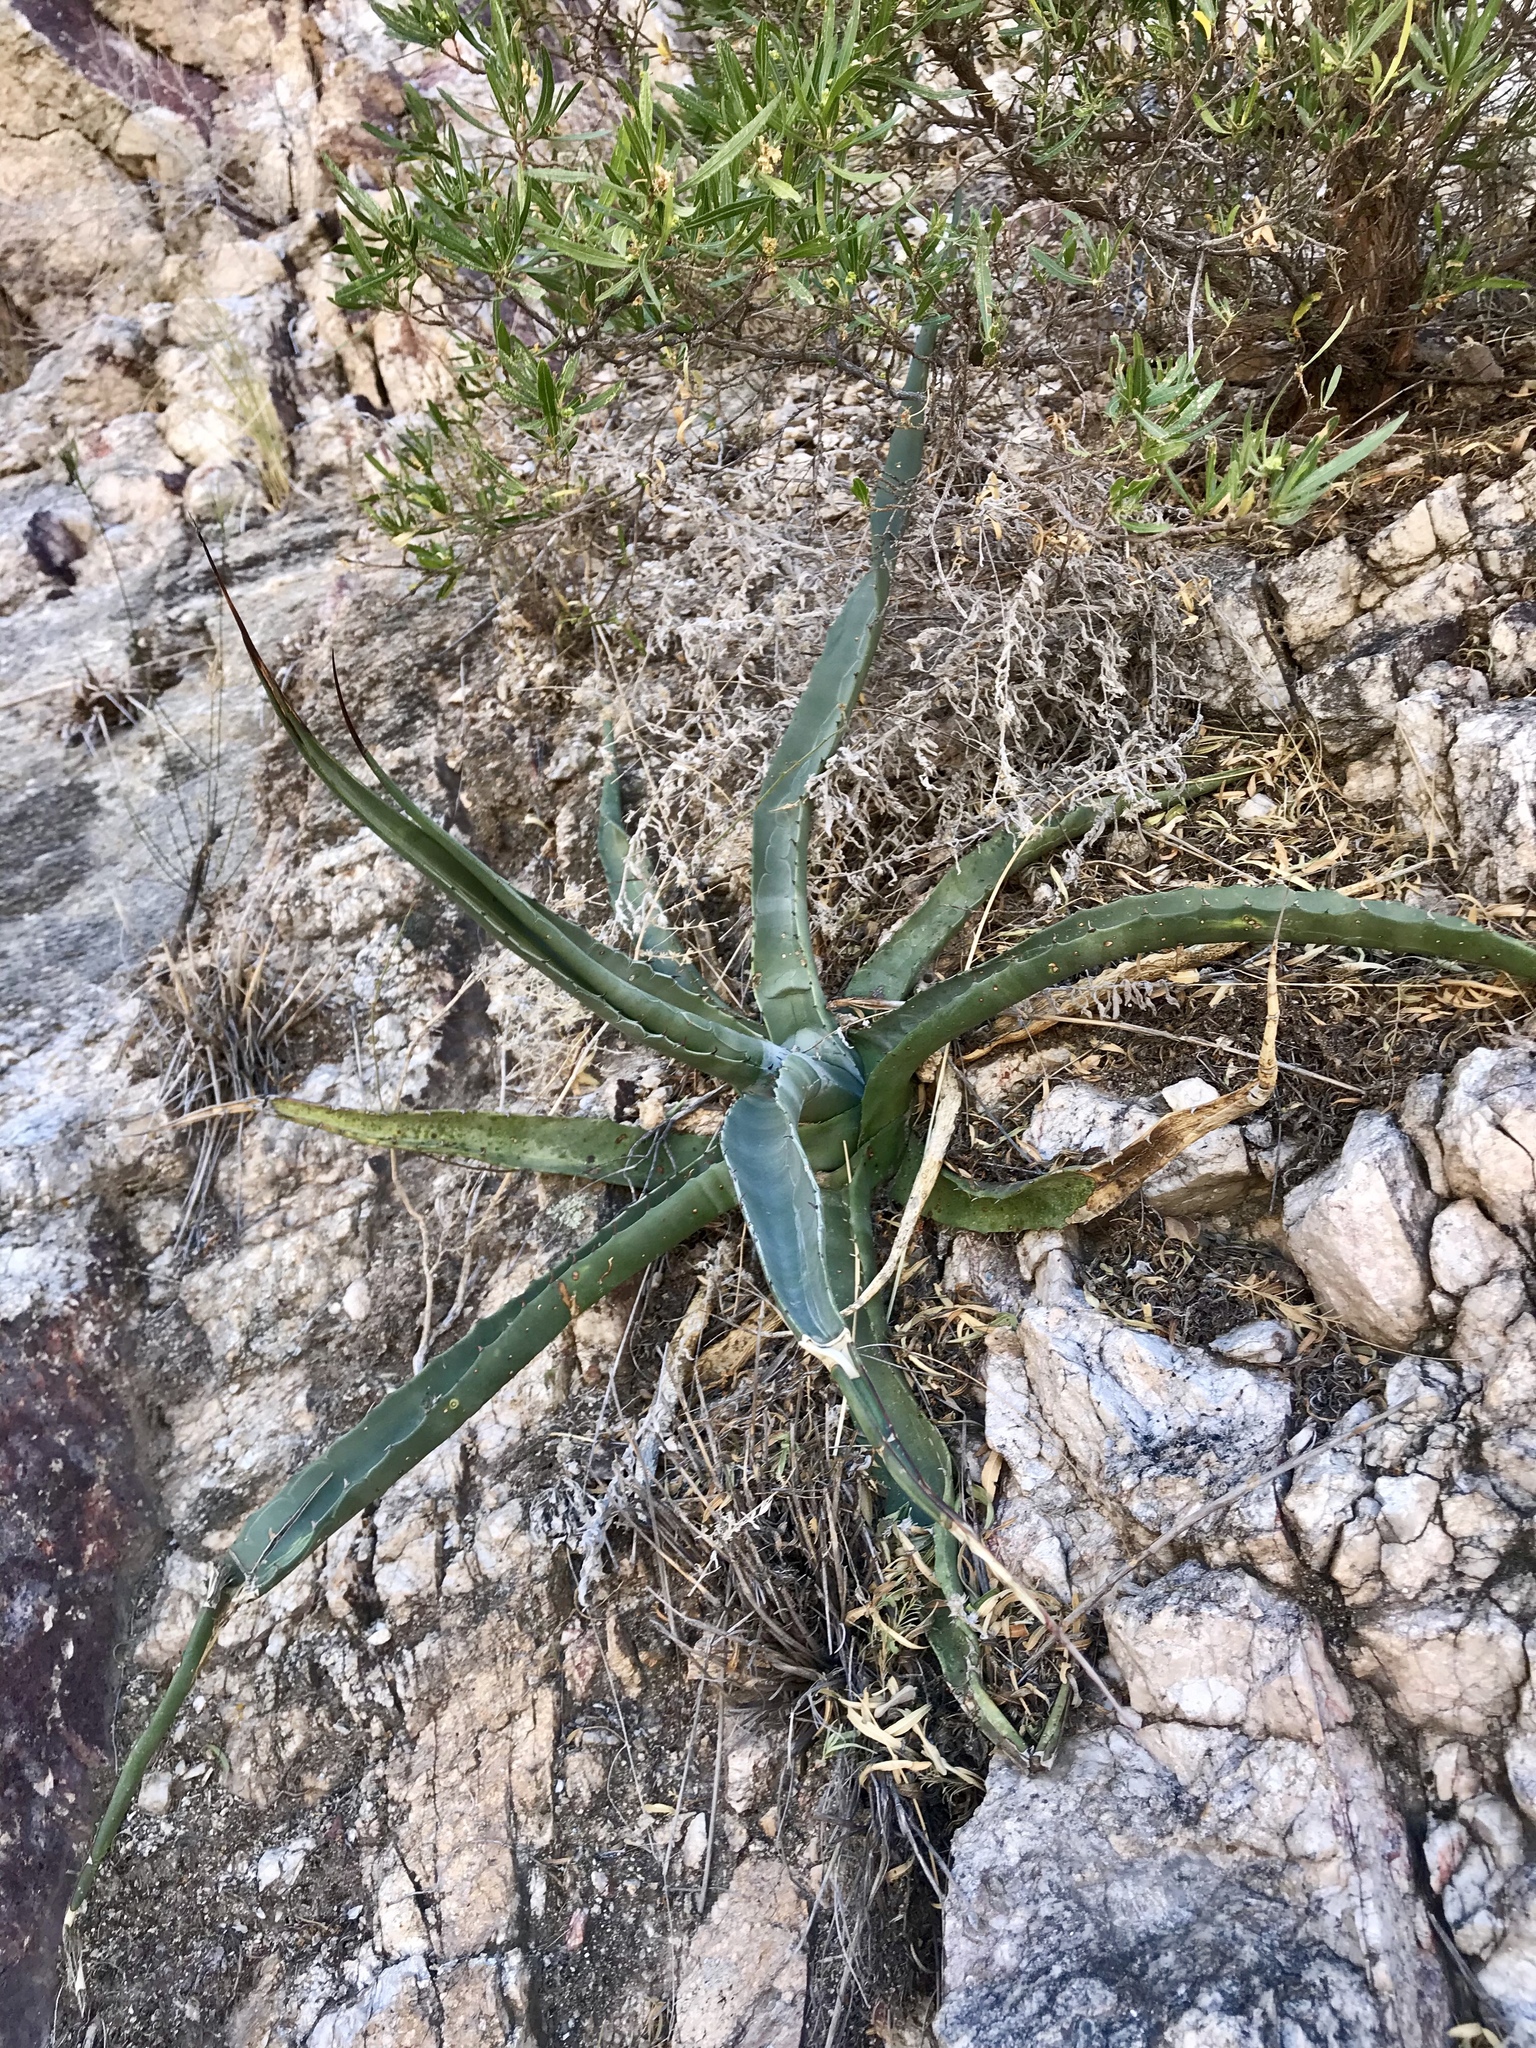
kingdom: Plantae
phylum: Tracheophyta
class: Liliopsida
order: Asparagales
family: Asparagaceae
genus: Agave
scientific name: Agave palmeri
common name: Palmer agave
